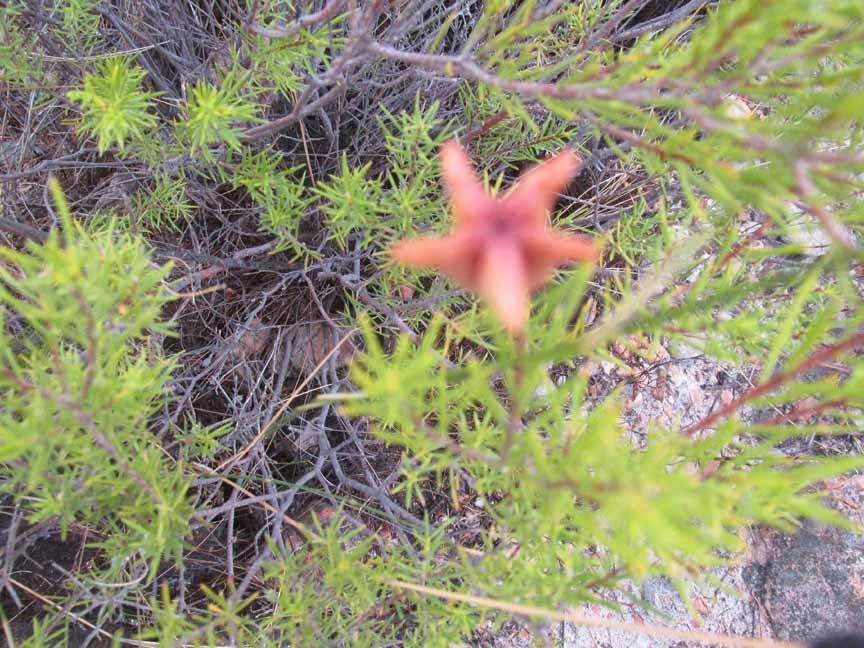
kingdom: Plantae
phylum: Tracheophyta
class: Magnoliopsida
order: Sapindales
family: Rutaceae
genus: Diosma
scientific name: Diosma acmaeophylla
